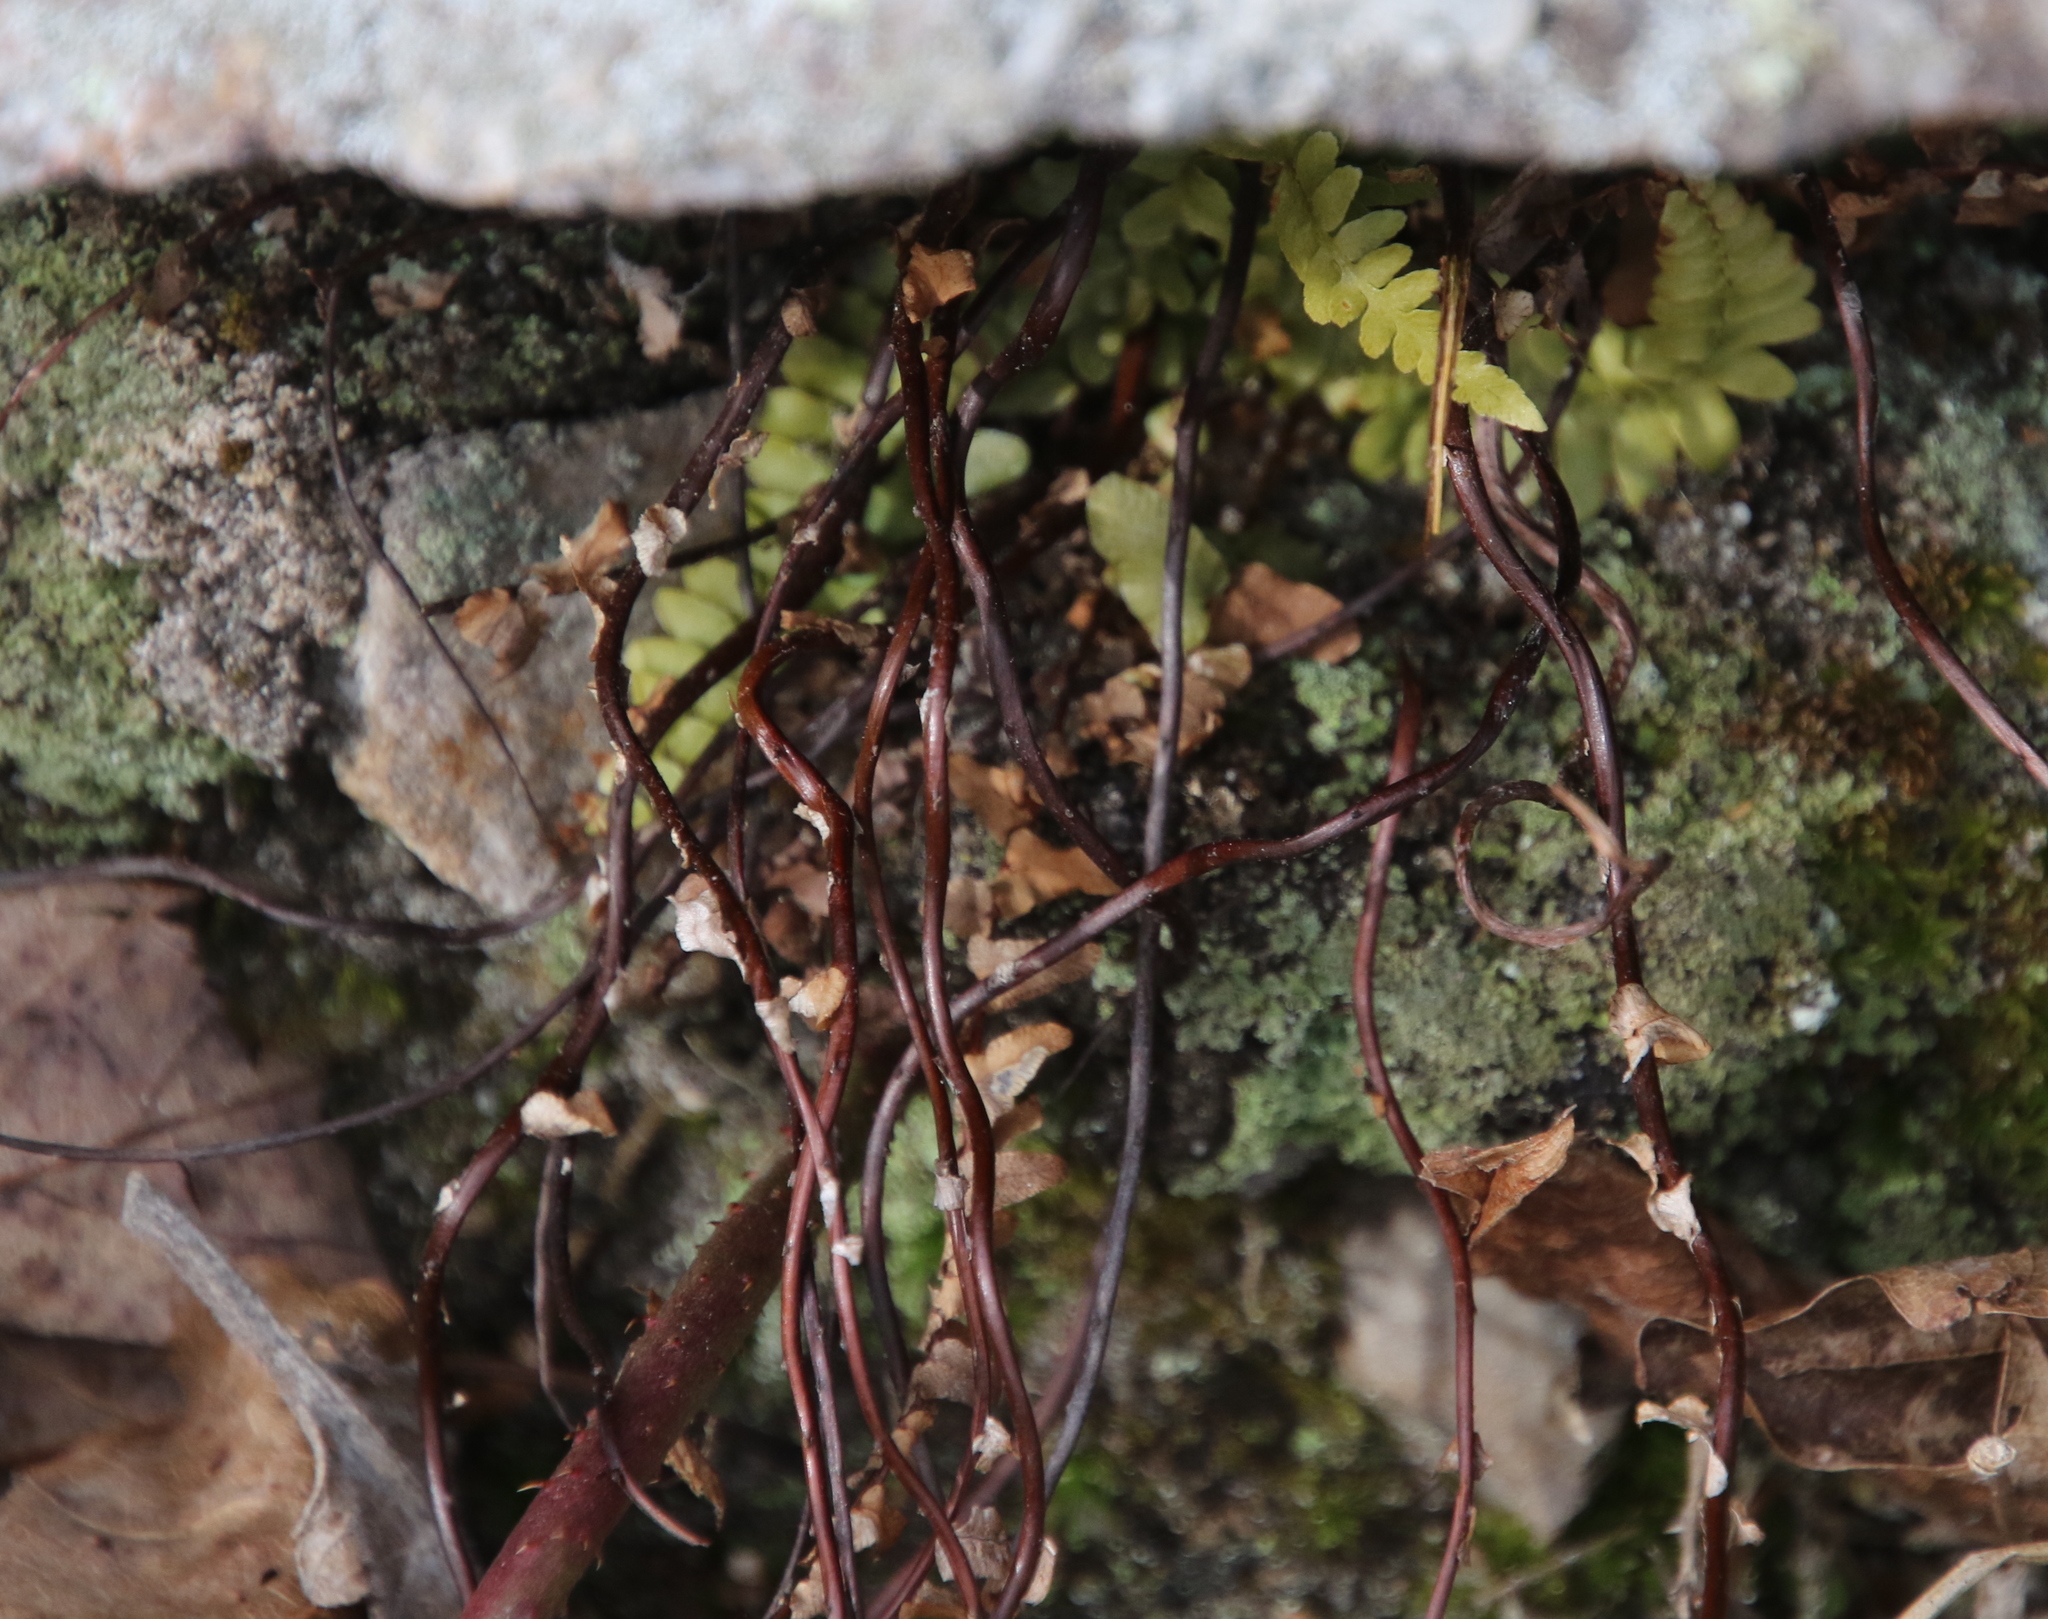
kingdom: Plantae
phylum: Tracheophyta
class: Polypodiopsida
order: Polypodiales
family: Aspleniaceae
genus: Asplenium
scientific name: Asplenium platyneuron
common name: Ebony spleenwort
